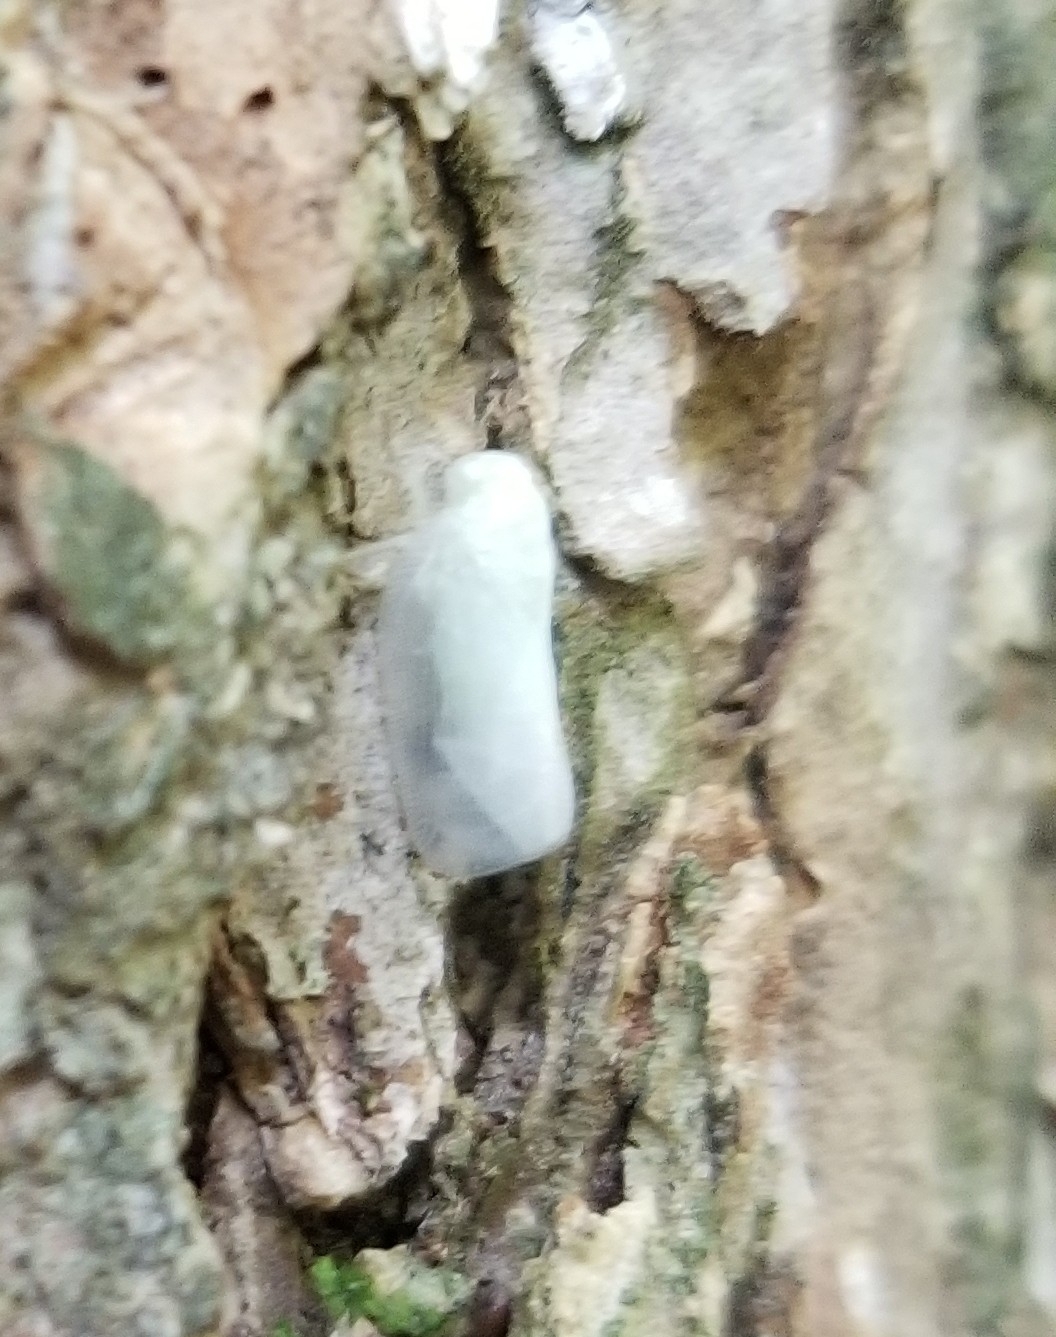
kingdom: Animalia
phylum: Arthropoda
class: Insecta
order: Hemiptera
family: Flatidae
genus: Metcalfa
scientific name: Metcalfa pruinosa
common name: Citrus flatid planthopper
